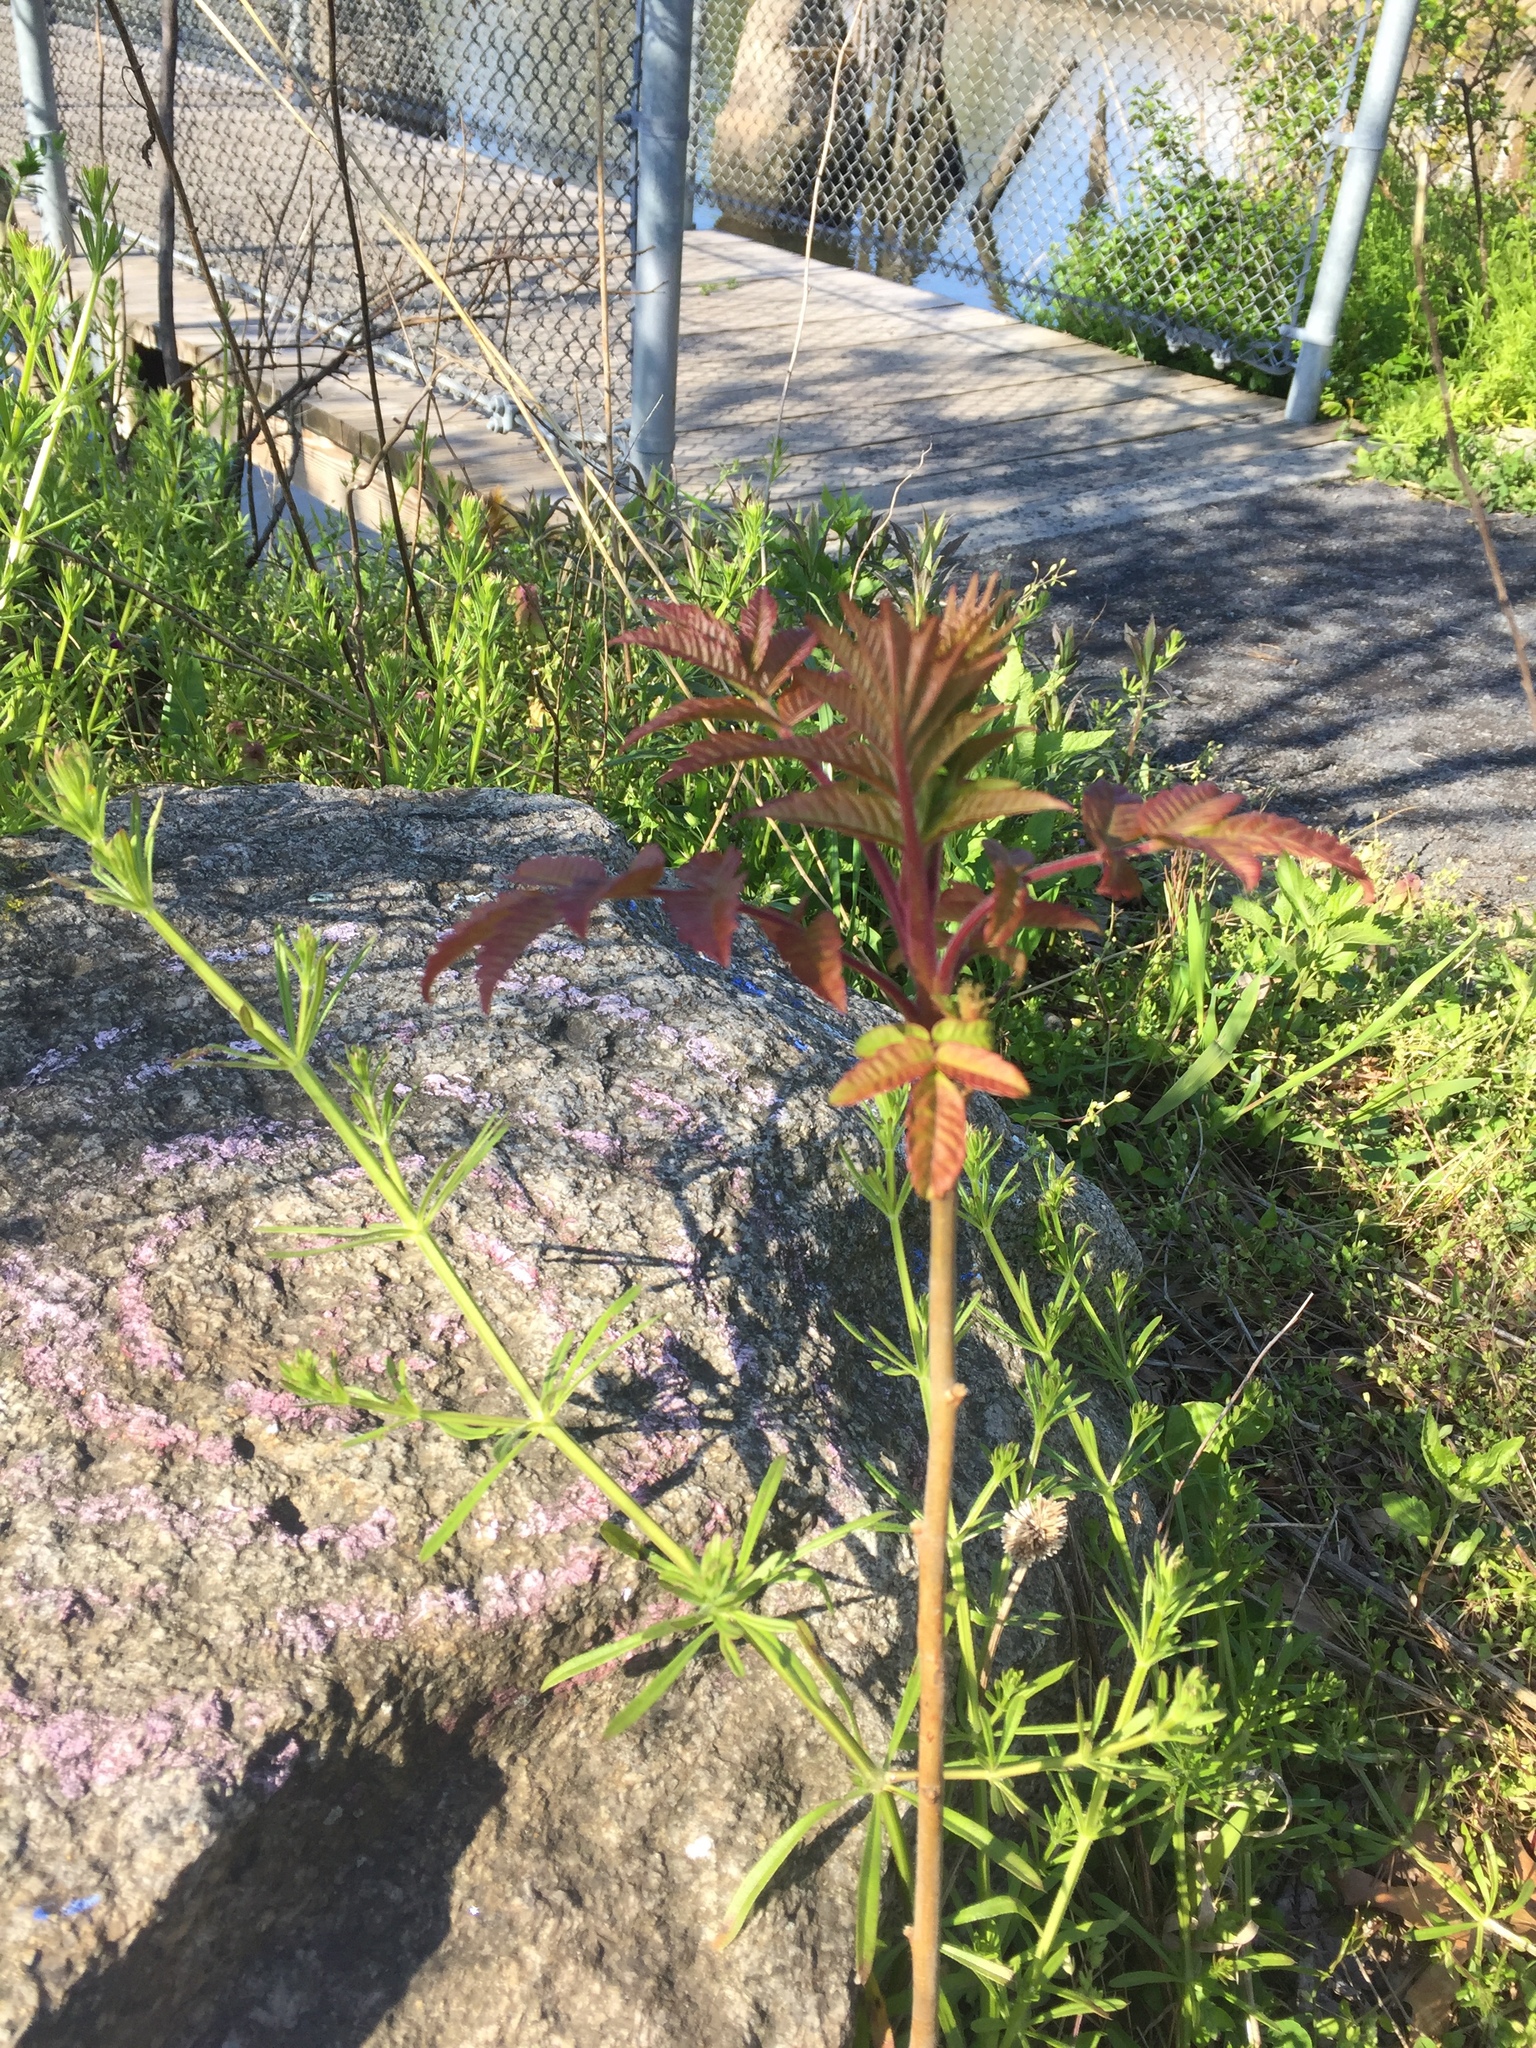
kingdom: Plantae
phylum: Tracheophyta
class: Magnoliopsida
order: Sapindales
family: Anacardiaceae
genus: Rhus
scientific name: Rhus typhina
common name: Staghorn sumac
